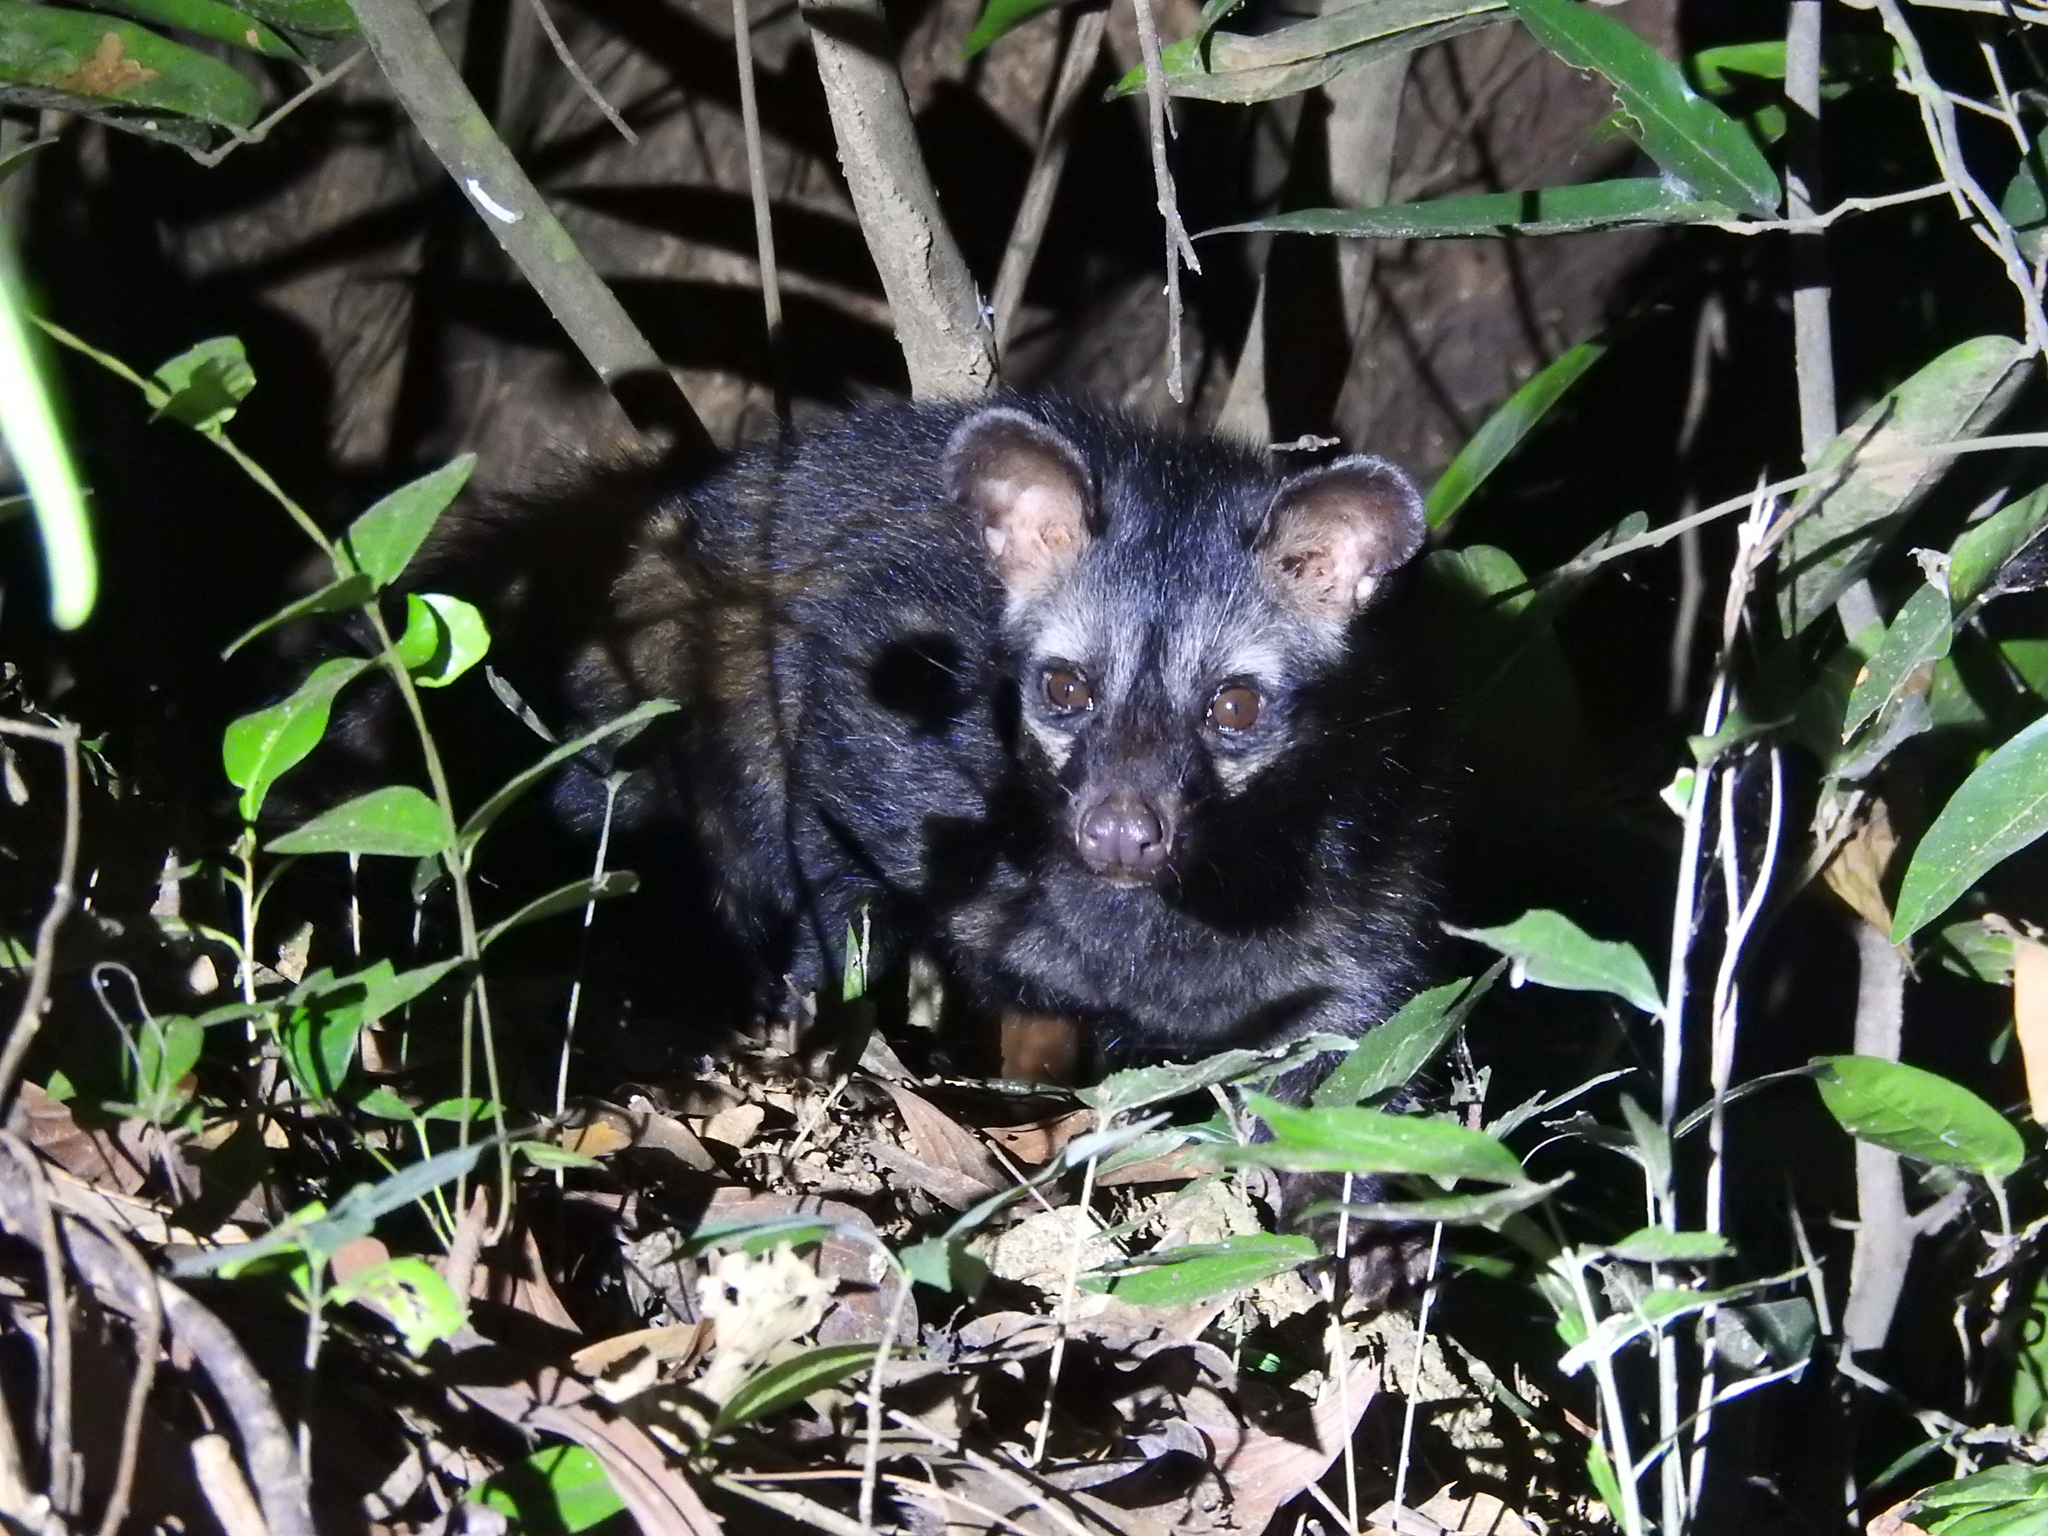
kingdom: Animalia
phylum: Chordata
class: Mammalia
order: Carnivora
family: Viverridae
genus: Paradoxurus
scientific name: Paradoxurus hermaphroditus
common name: Common palm civet
